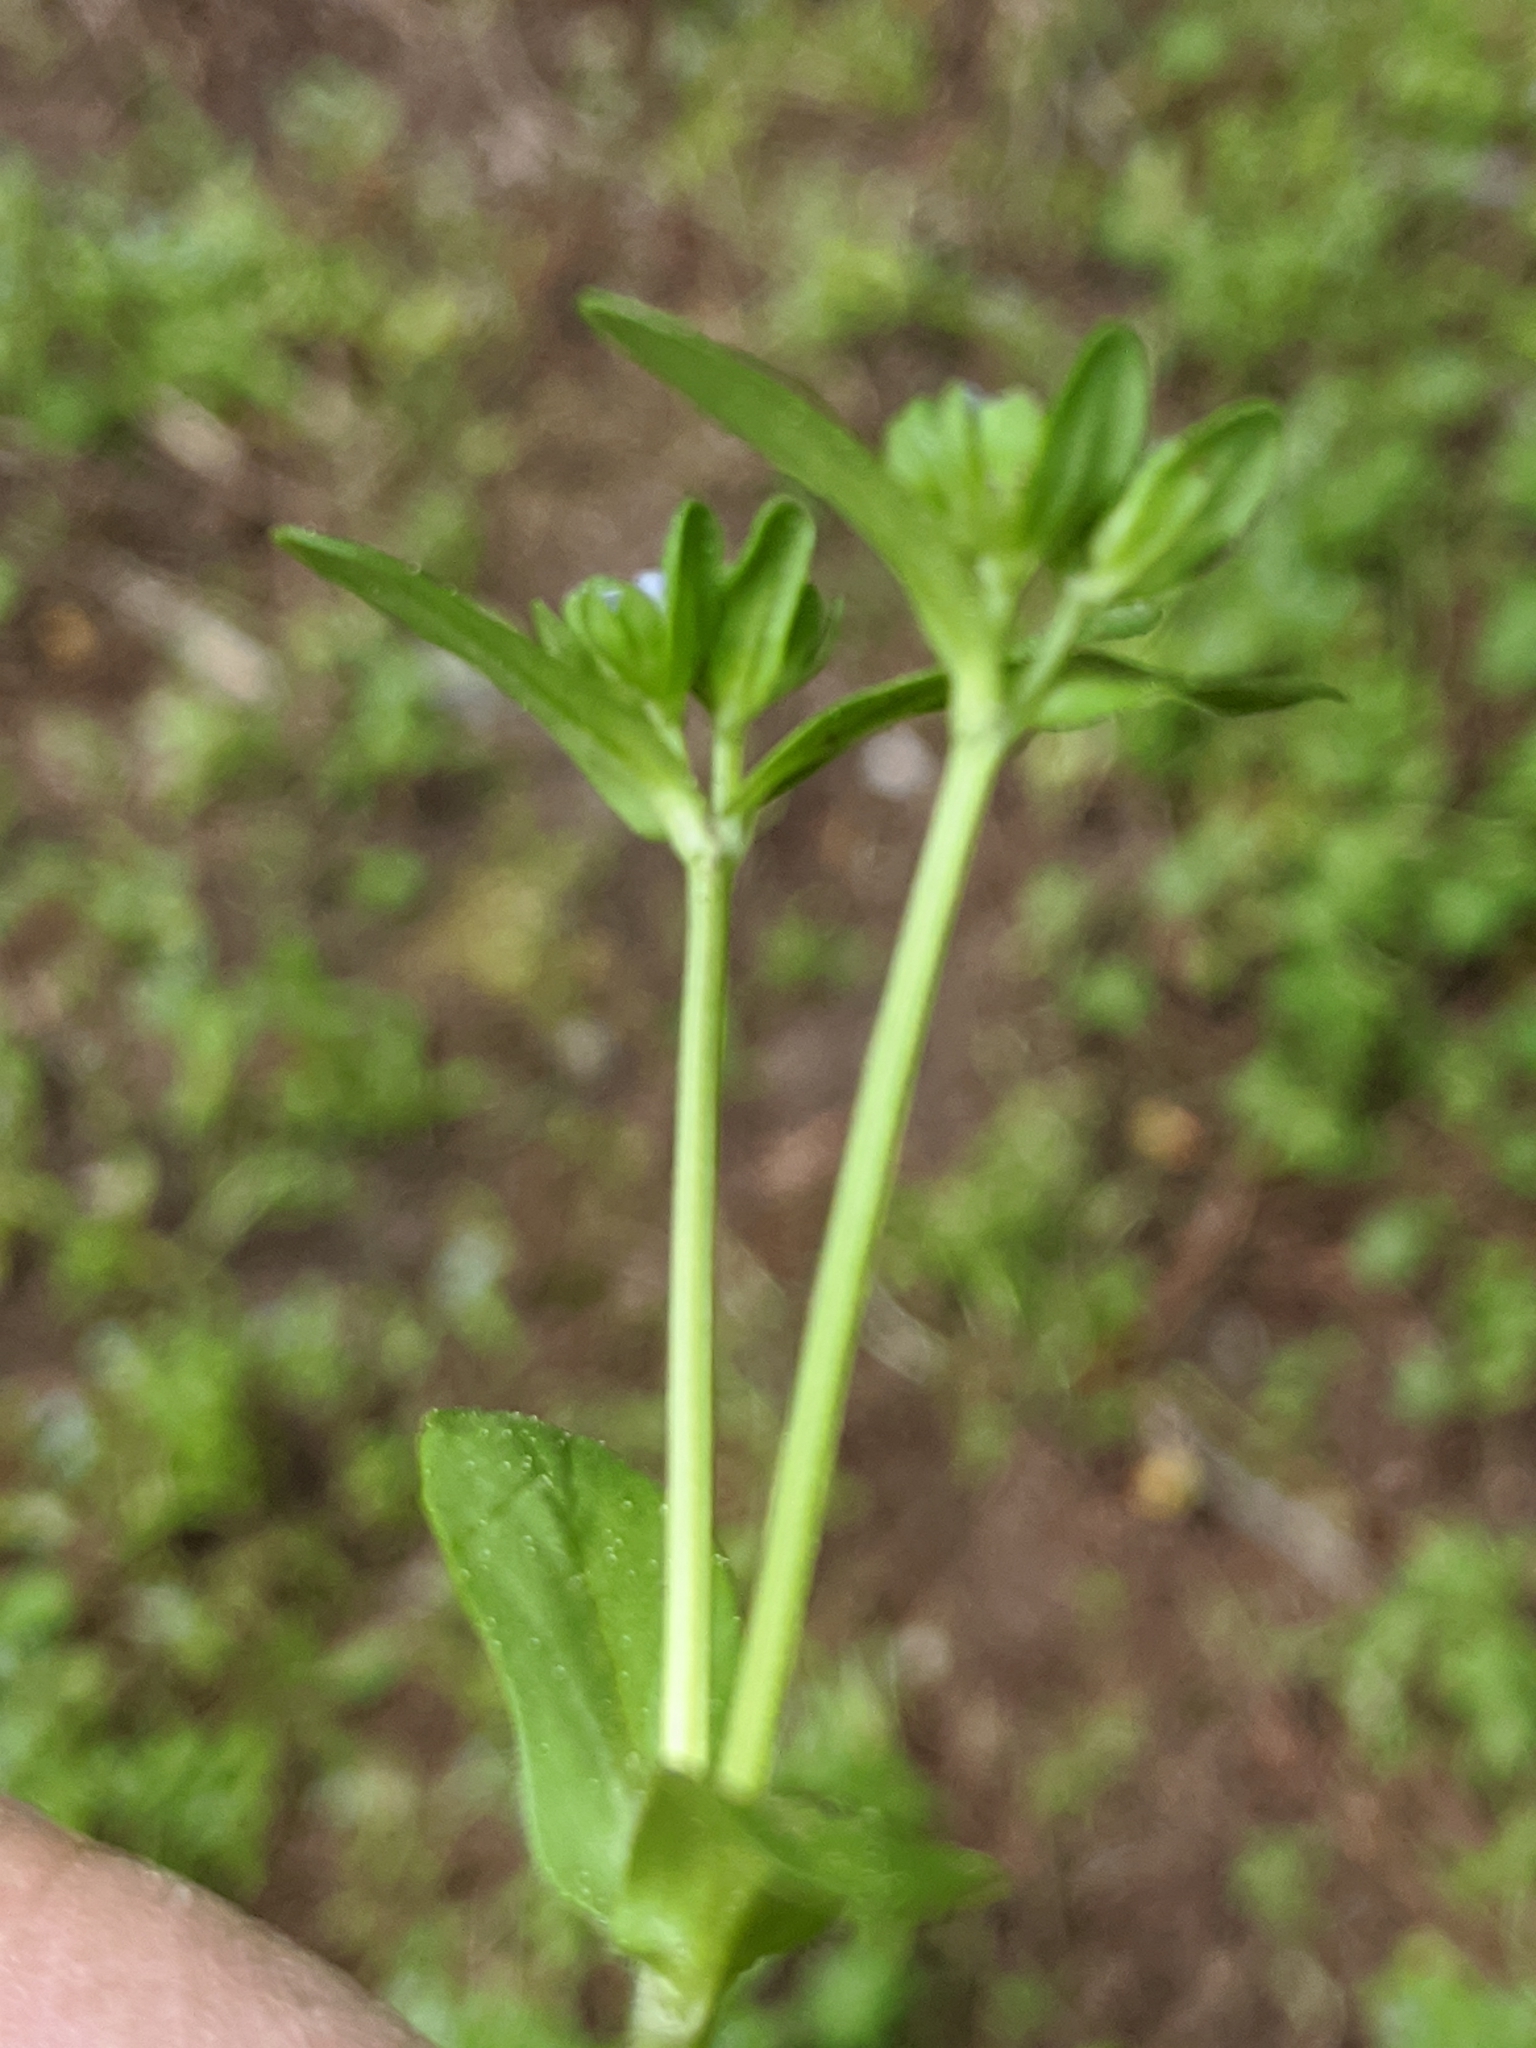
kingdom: Plantae
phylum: Tracheophyta
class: Magnoliopsida
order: Dipsacales
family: Caprifoliaceae
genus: Valerianella
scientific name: Valerianella locusta
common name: Common cornsalad
